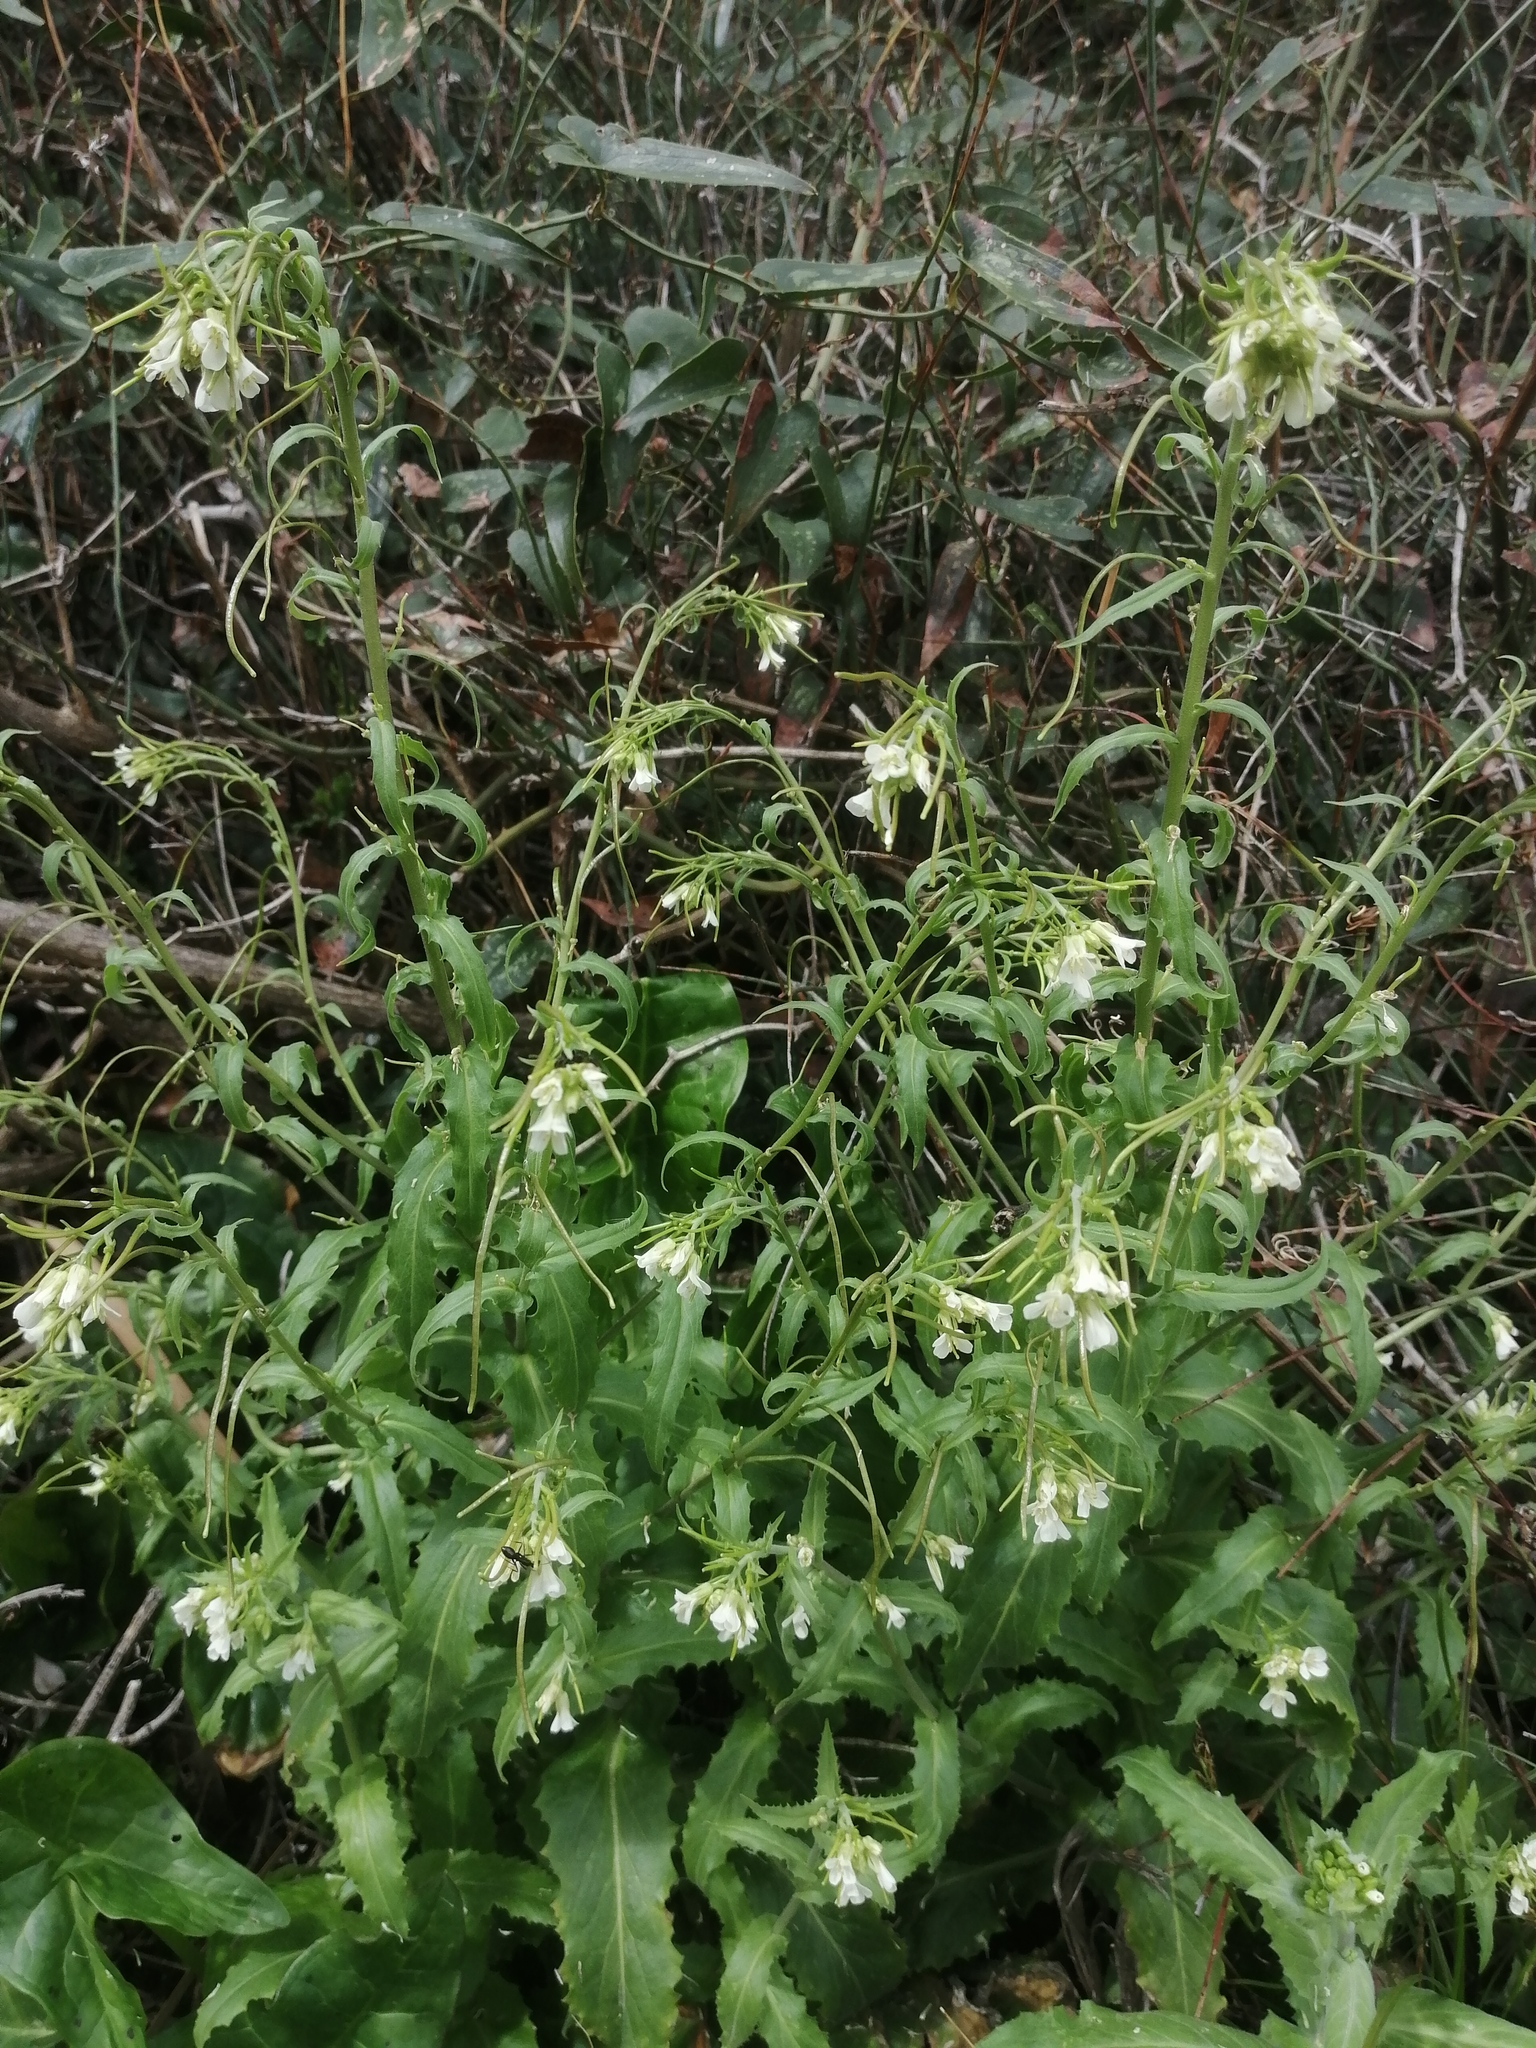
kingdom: Plantae
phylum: Tracheophyta
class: Magnoliopsida
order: Brassicales
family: Brassicaceae
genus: Pseudoturritis
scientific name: Pseudoturritis turrita
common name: Tower cress
